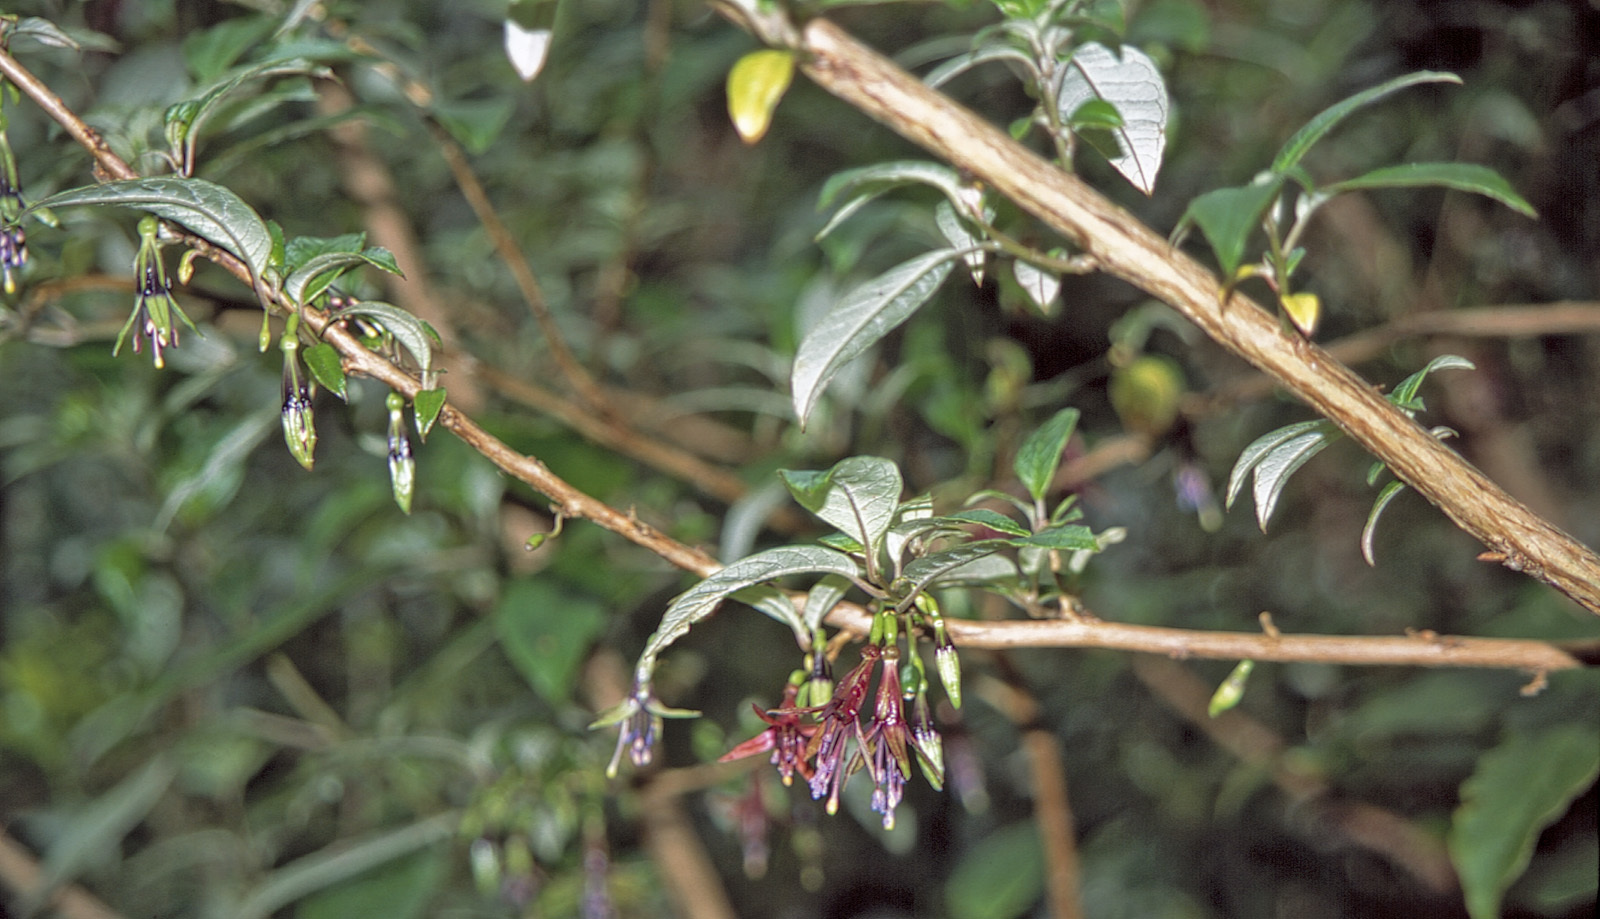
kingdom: Plantae
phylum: Tracheophyta
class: Magnoliopsida
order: Myrtales
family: Onagraceae
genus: Fuchsia
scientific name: Fuchsia excorticata
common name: Tree fuchsia
